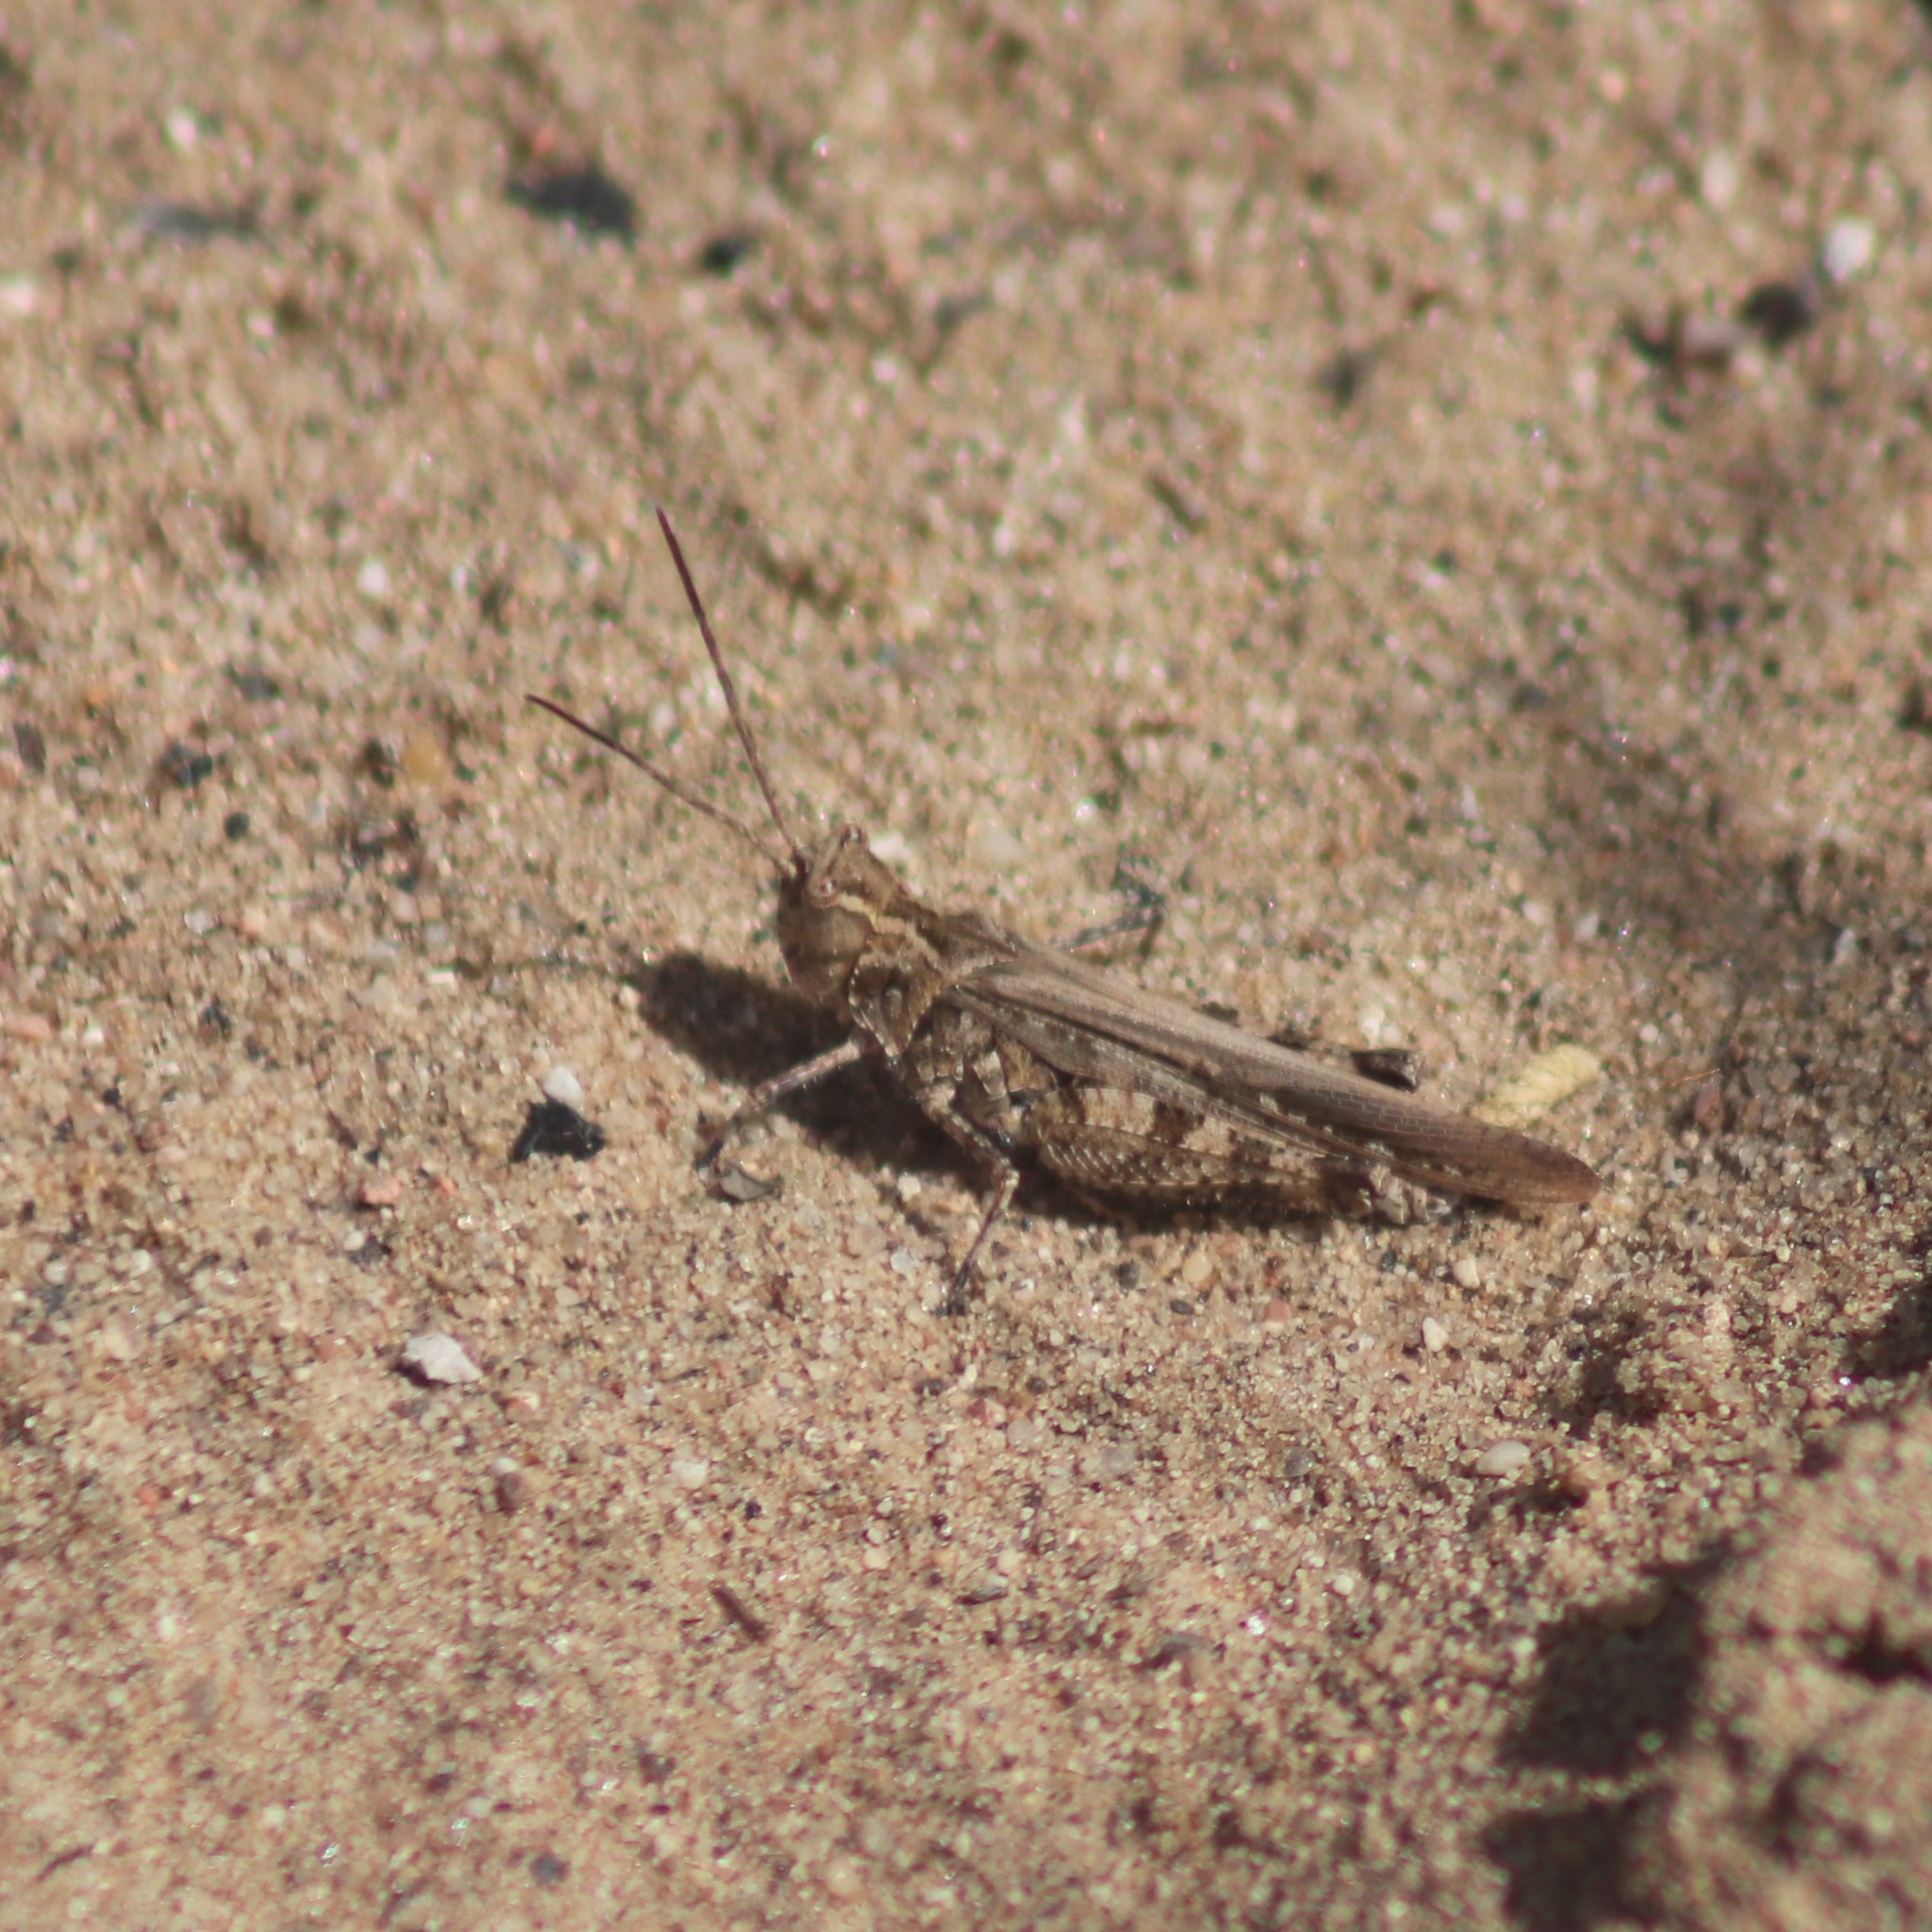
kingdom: Animalia
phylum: Arthropoda
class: Insecta
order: Orthoptera
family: Acrididae
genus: Psinidia
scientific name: Psinidia fenestralis
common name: Long-horned locust
